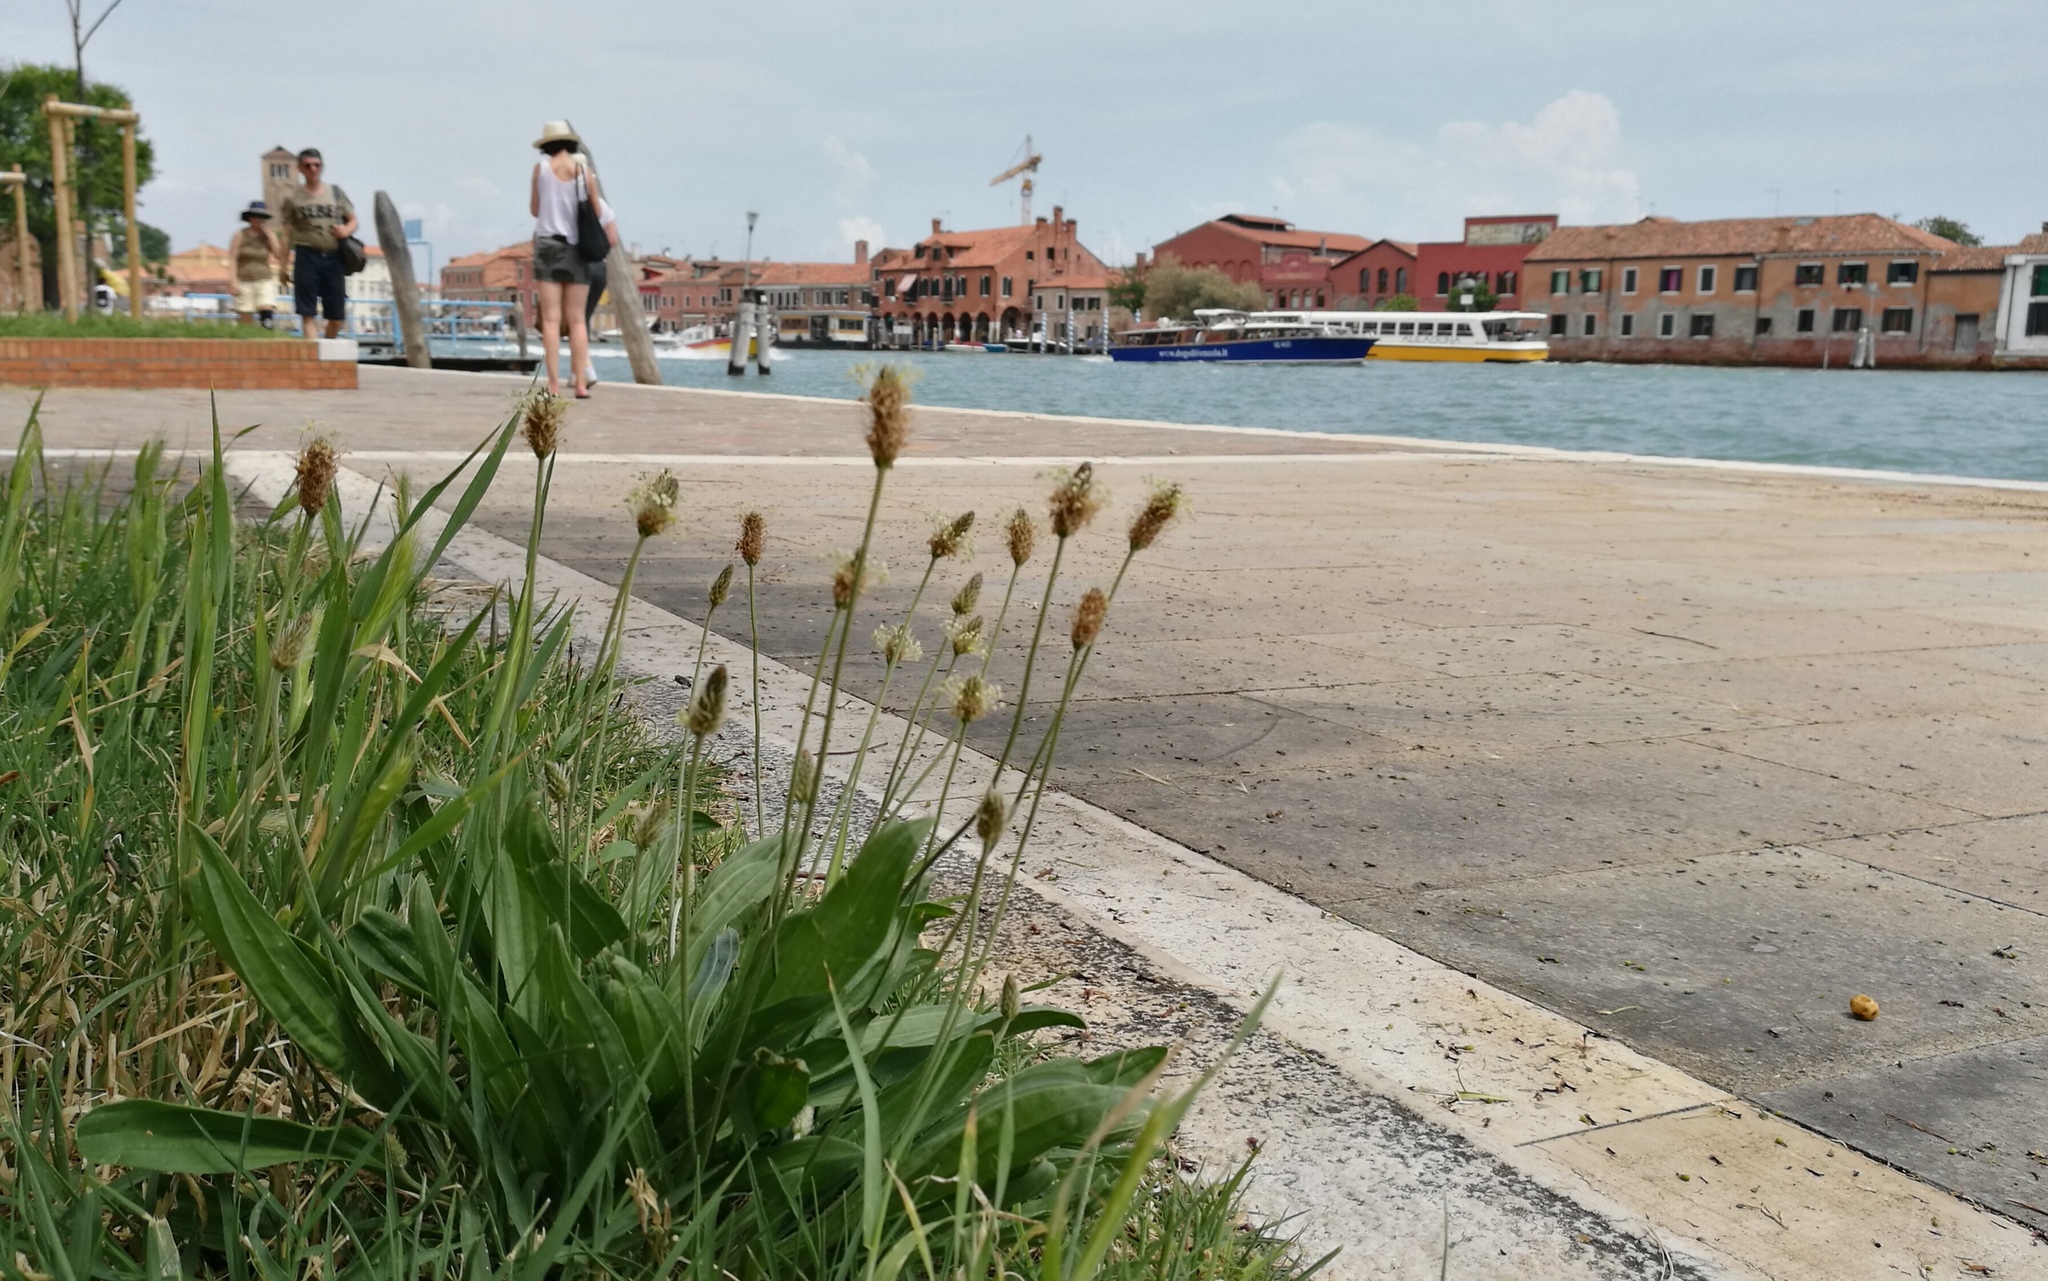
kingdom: Plantae
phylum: Tracheophyta
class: Magnoliopsida
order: Lamiales
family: Plantaginaceae
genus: Plantago
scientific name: Plantago lanceolata
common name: Ribwort plantain
